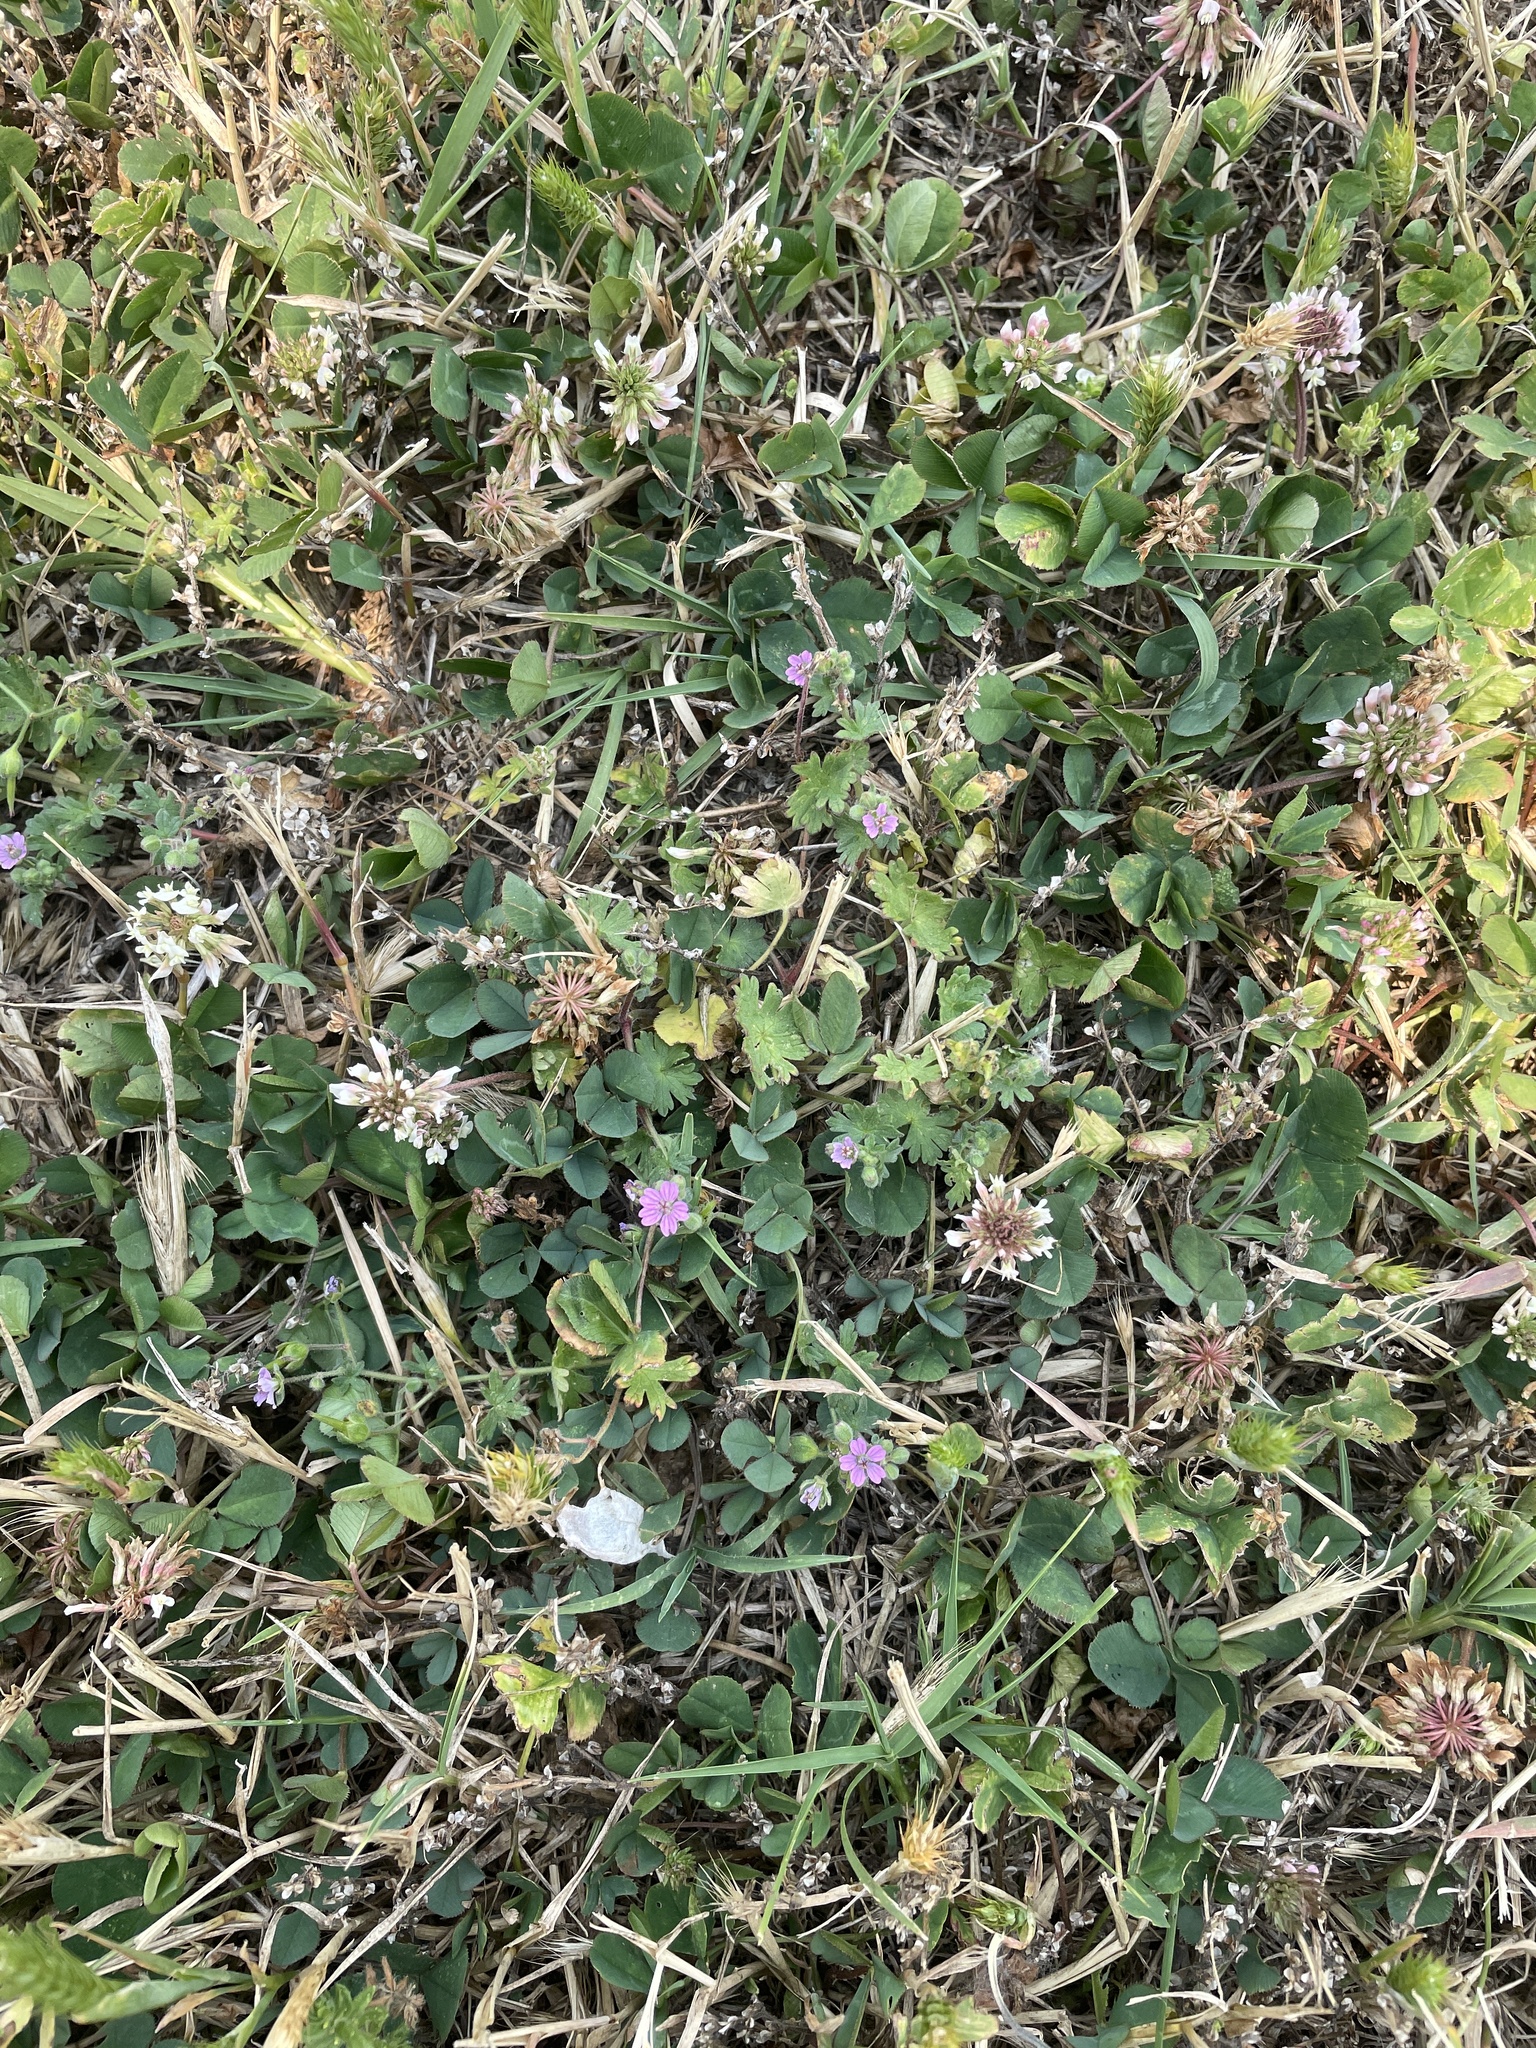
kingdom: Plantae
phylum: Tracheophyta
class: Magnoliopsida
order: Geraniales
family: Geraniaceae
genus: Geranium
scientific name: Geranium molle
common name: Dove's-foot crane's-bill
